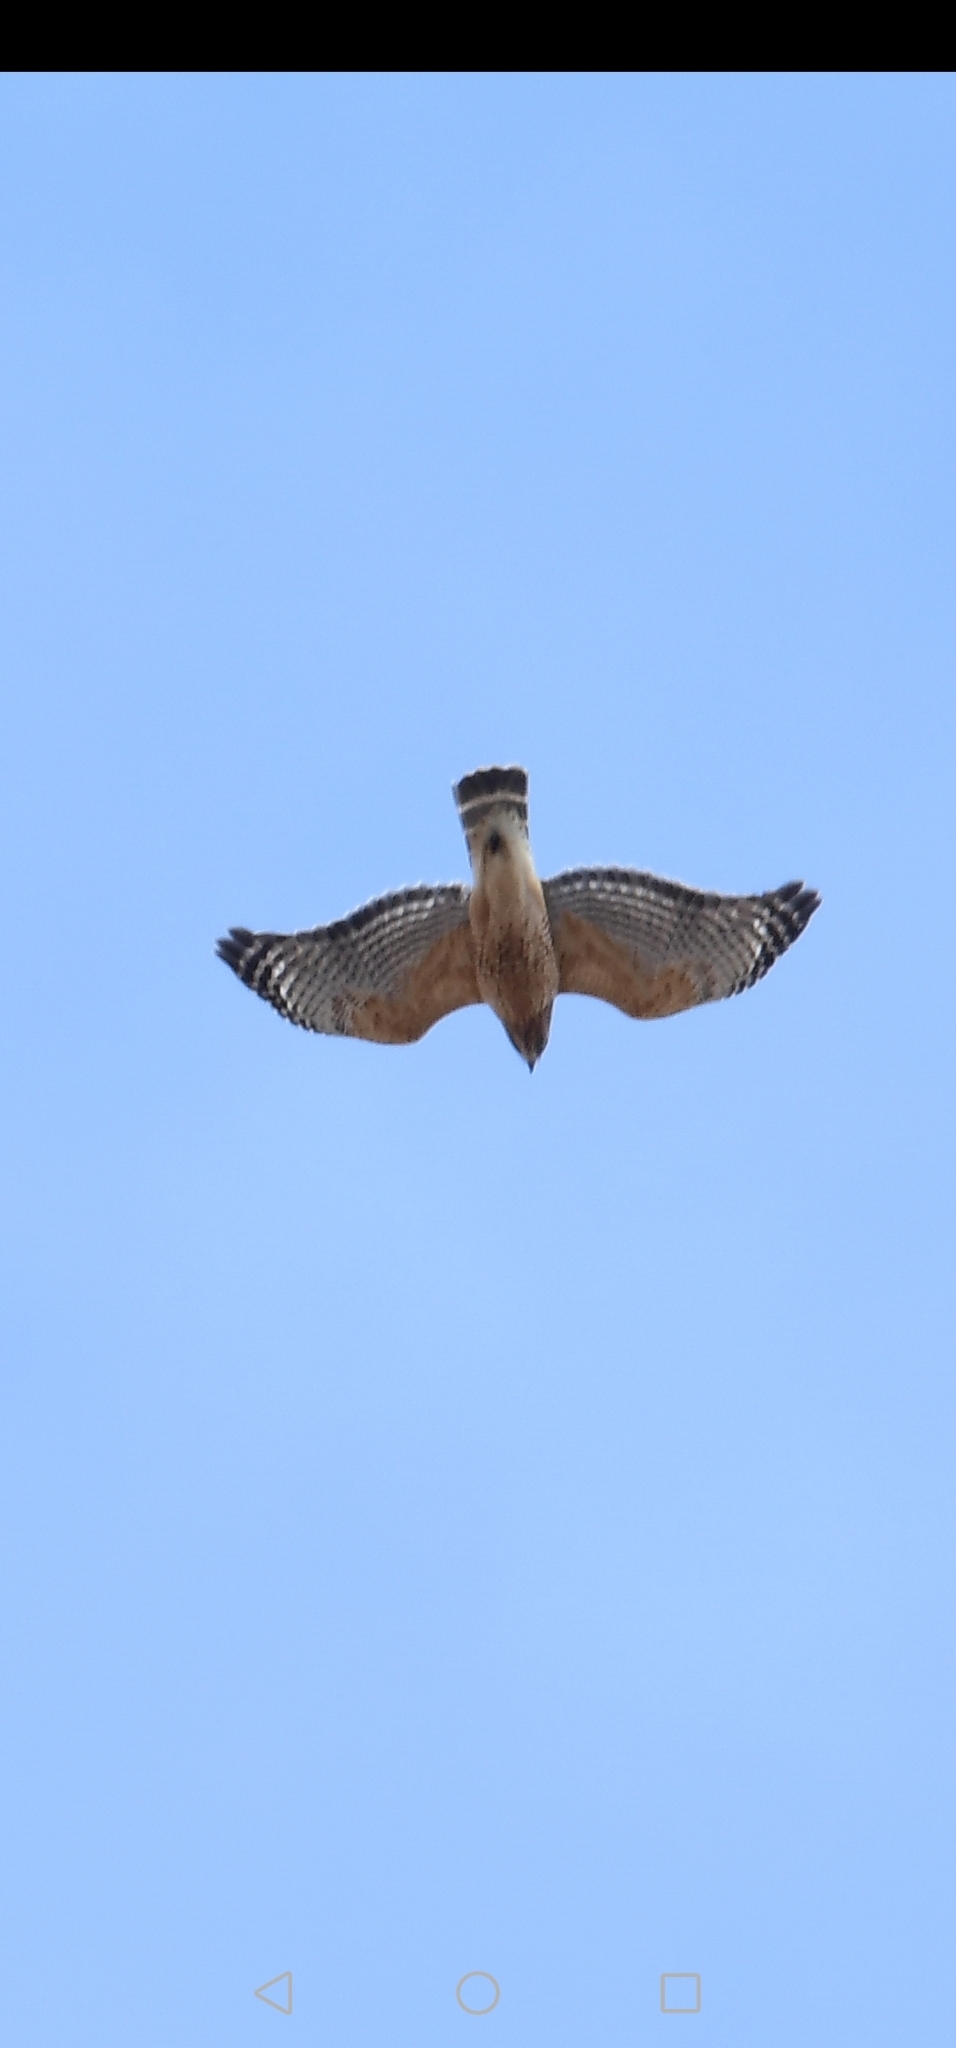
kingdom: Animalia
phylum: Chordata
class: Aves
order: Accipitriformes
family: Accipitridae
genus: Buteo
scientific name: Buteo lineatus
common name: Red-shouldered hawk
